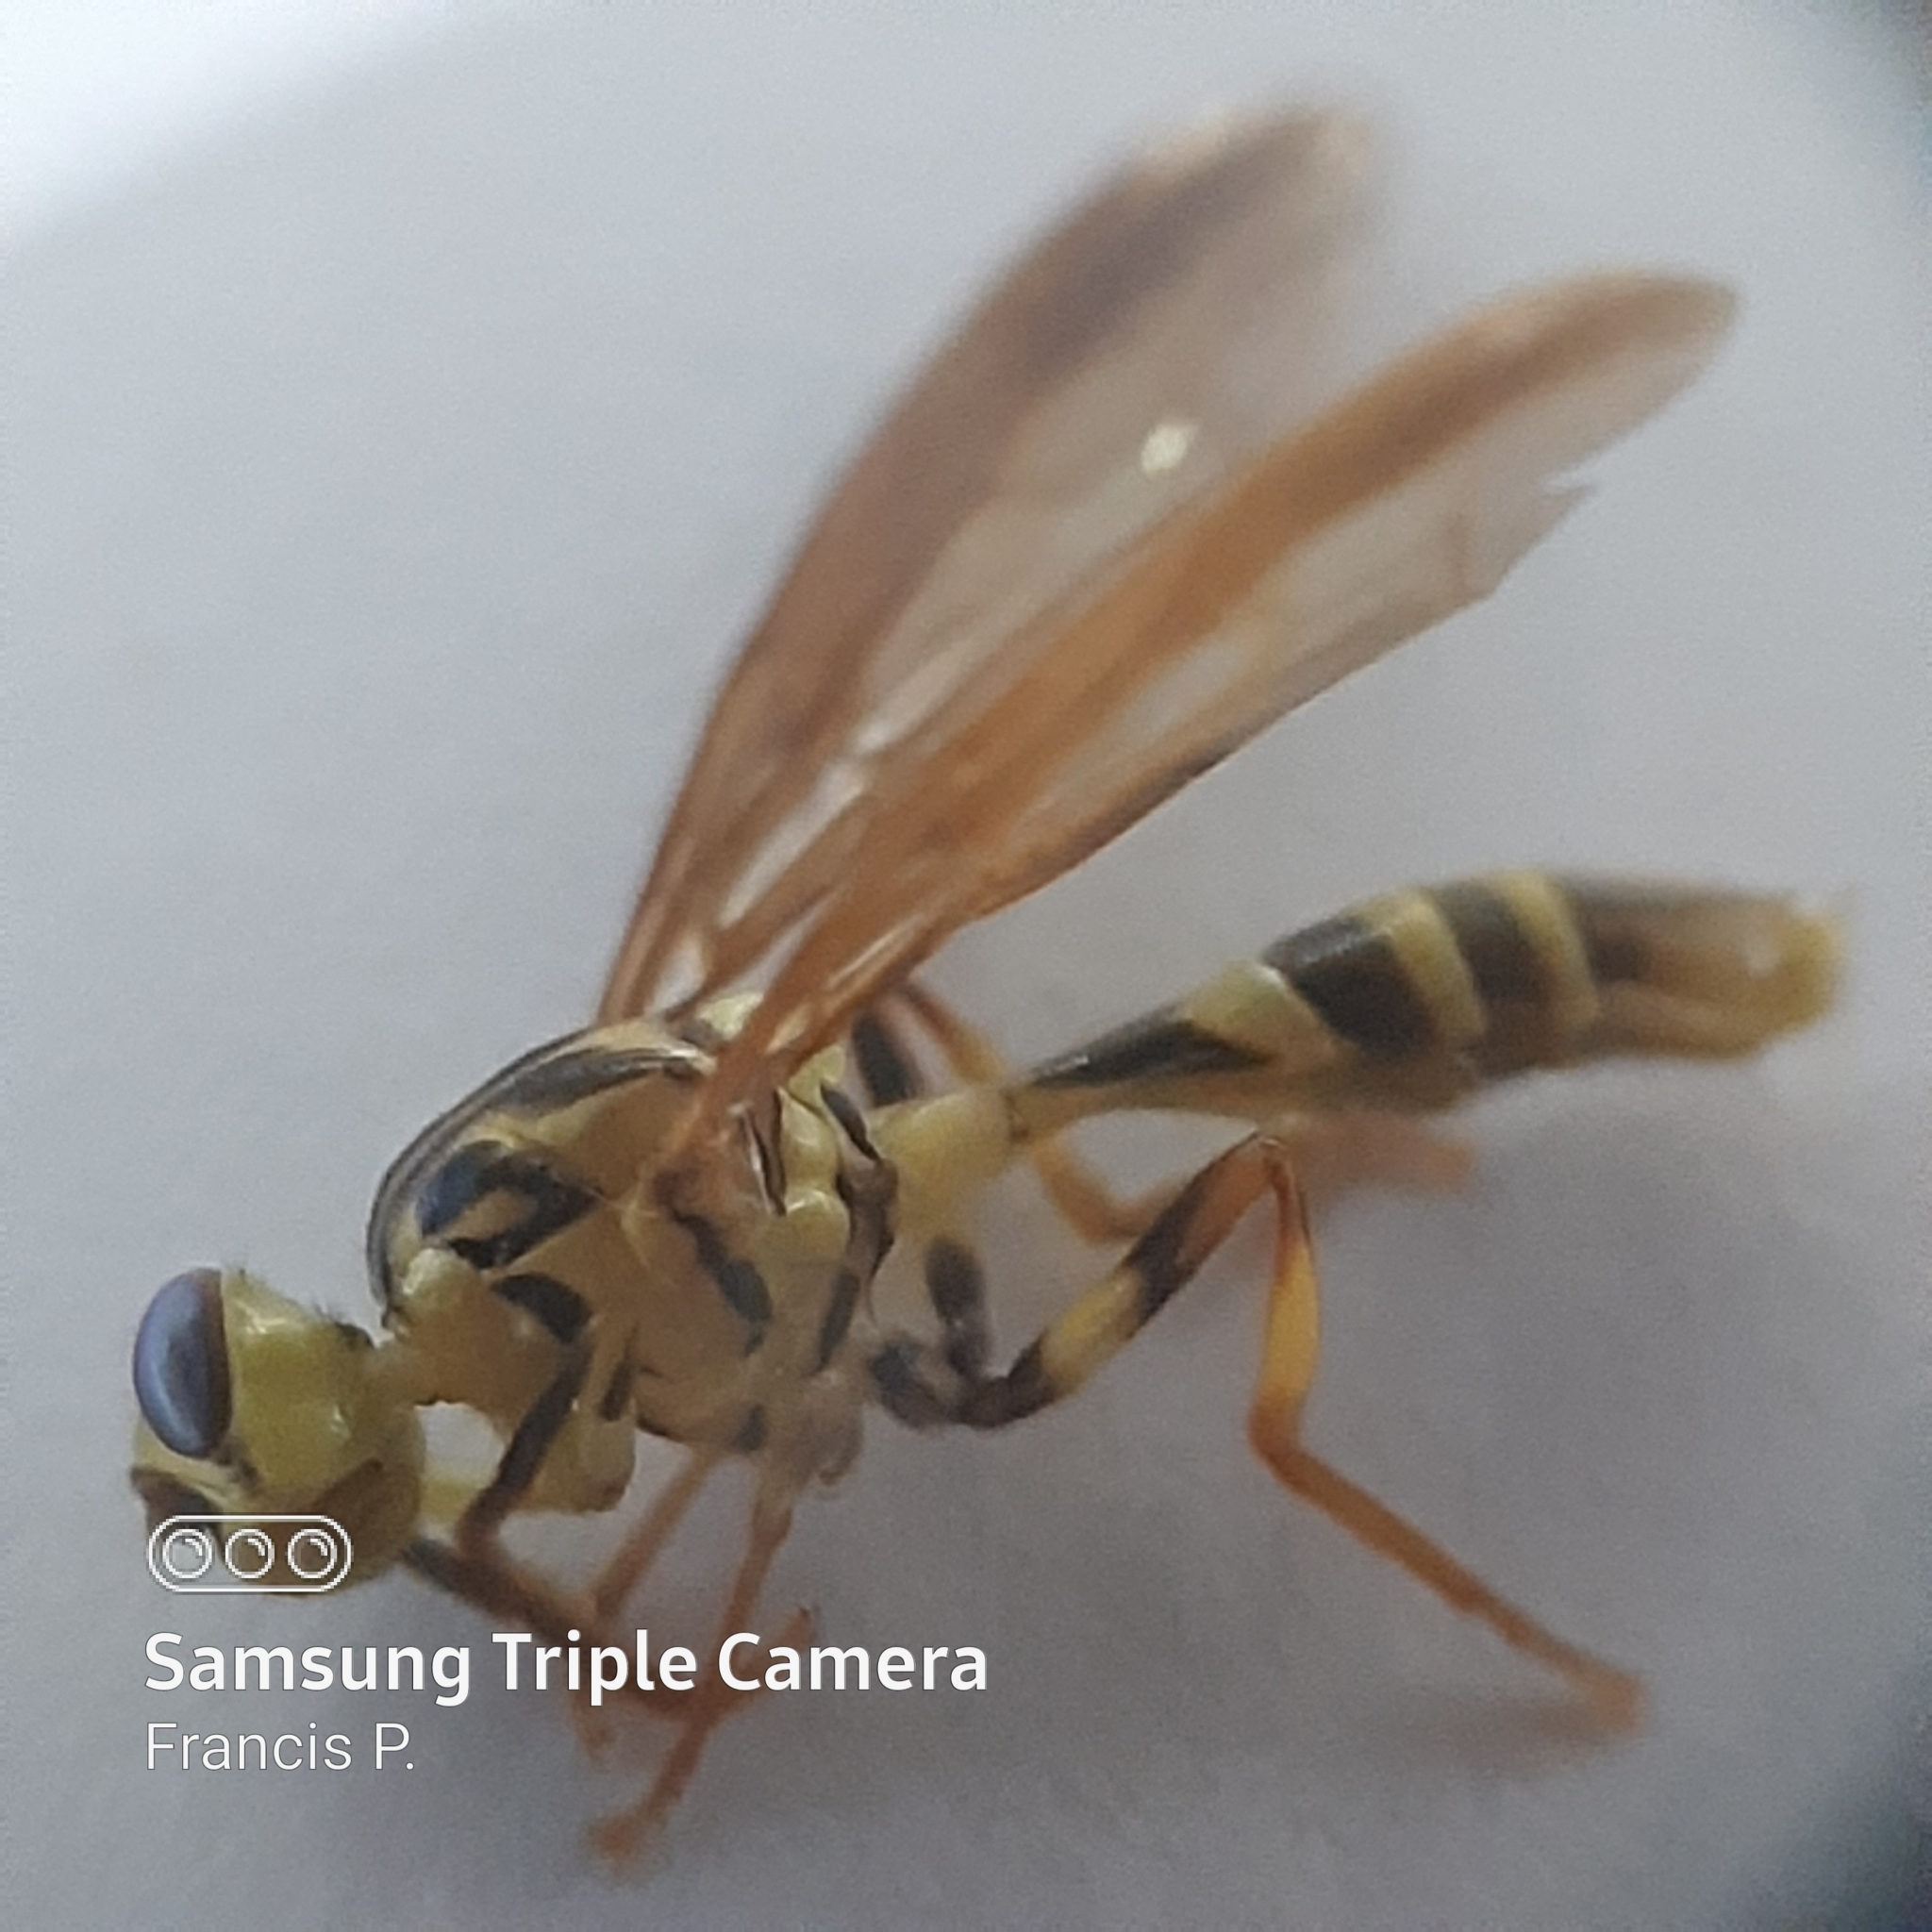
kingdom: Animalia
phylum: Arthropoda
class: Insecta
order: Diptera
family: Tephritidae
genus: Anastrepha
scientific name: Anastrepha curvicauda
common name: Papaya fruit fly
